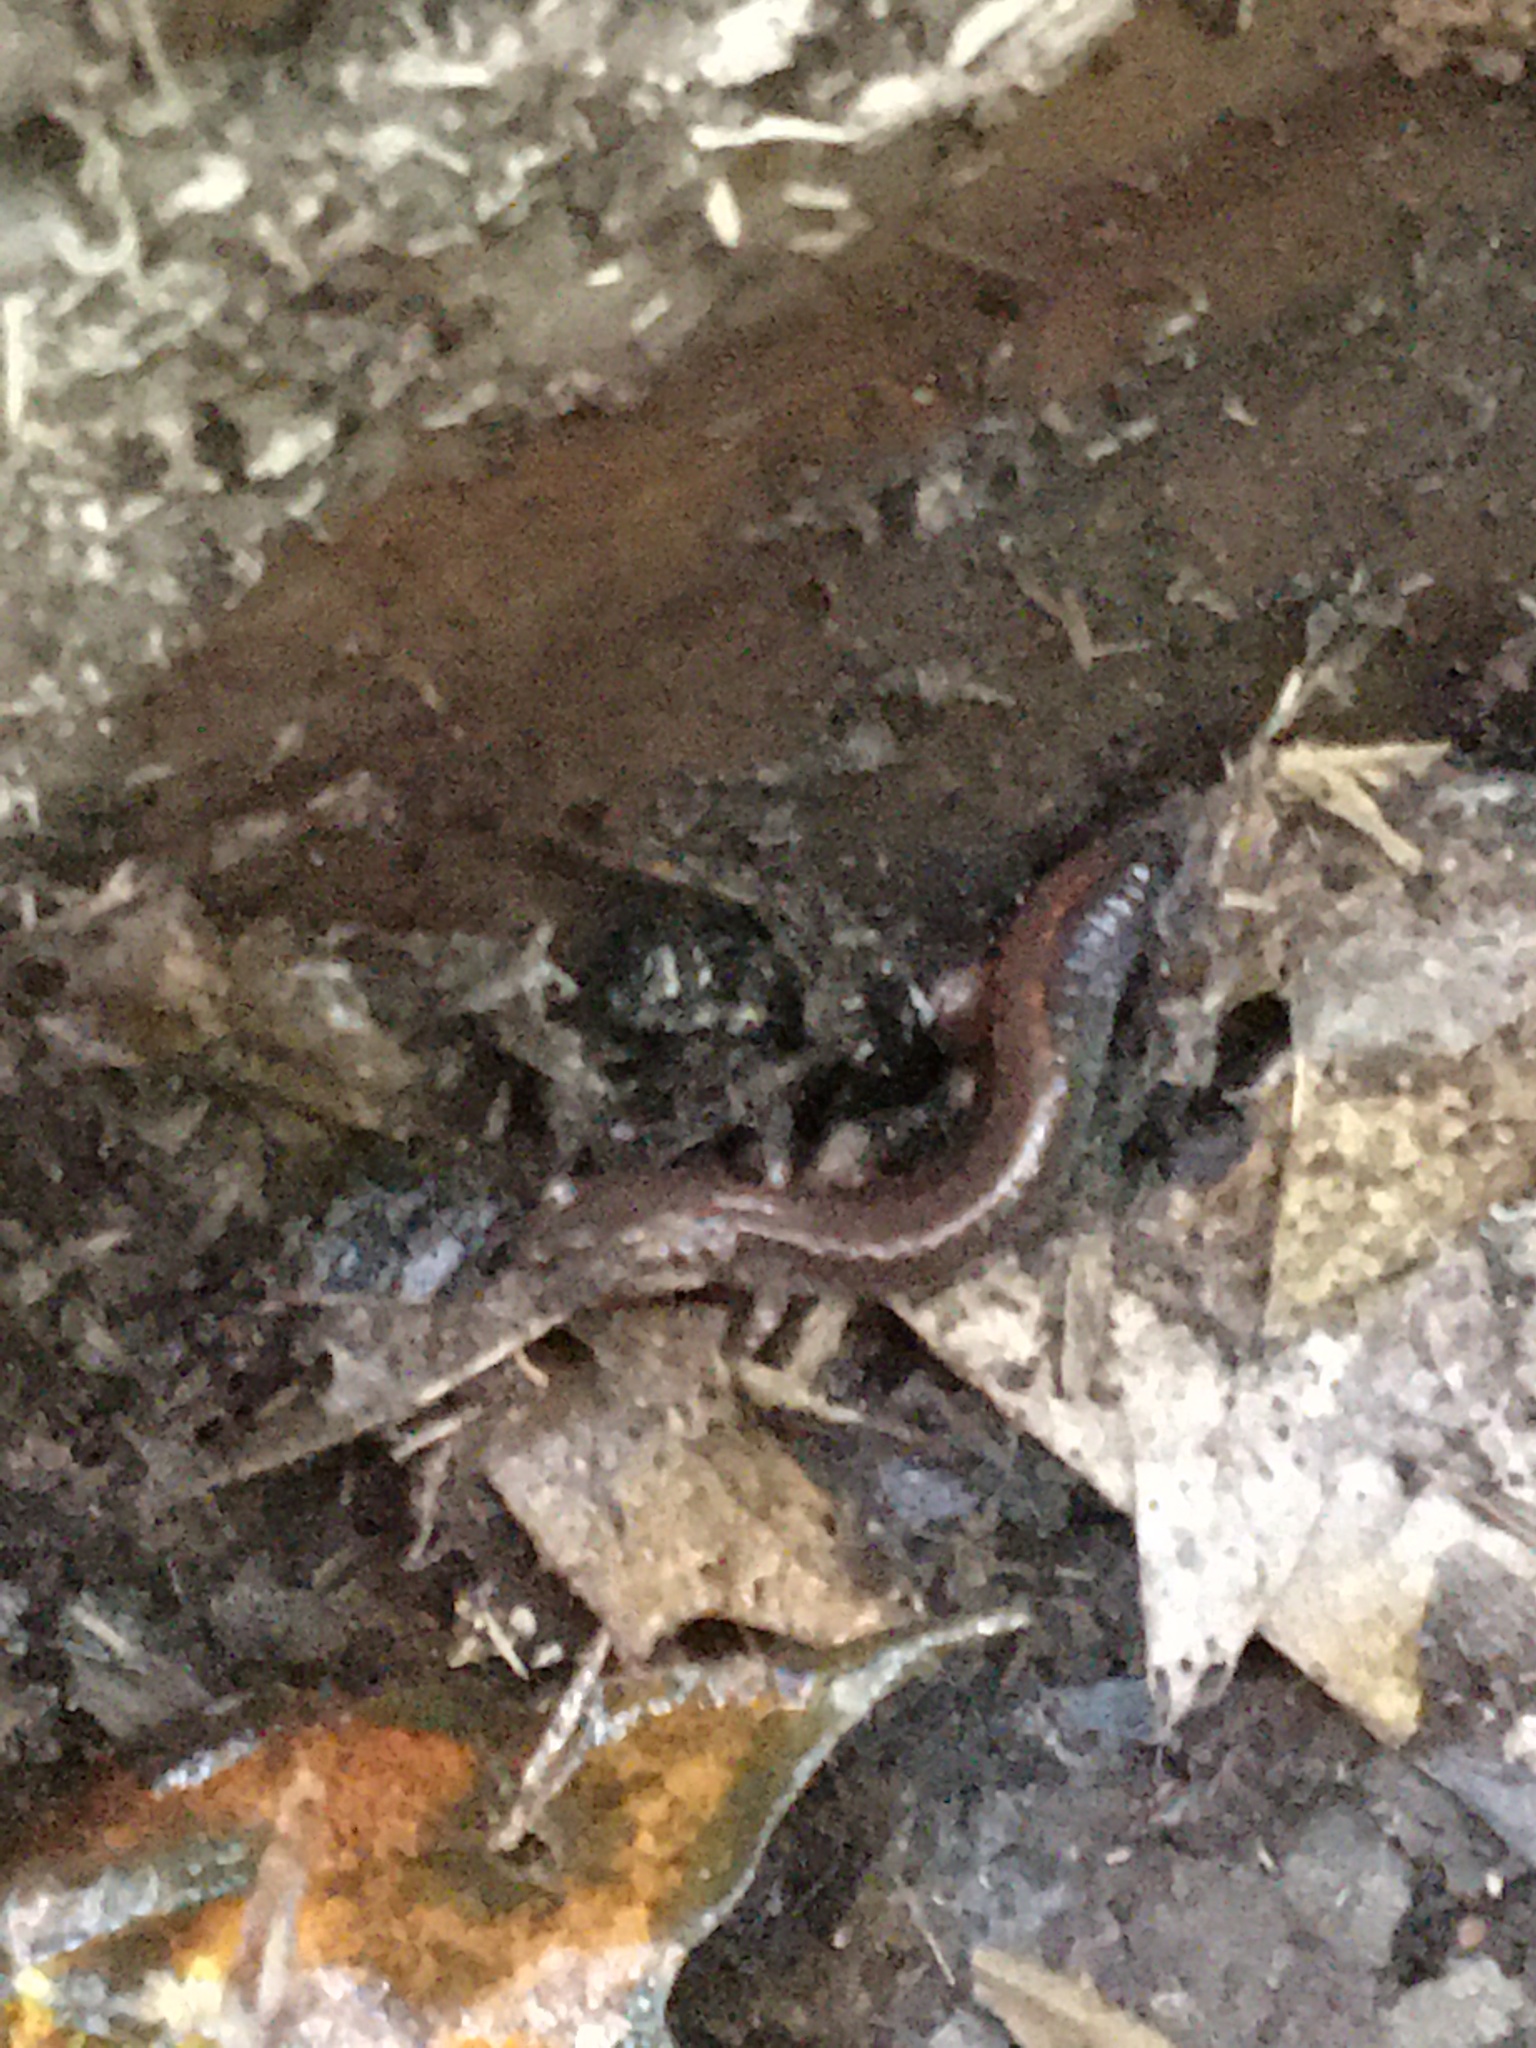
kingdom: Animalia
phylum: Chordata
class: Amphibia
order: Caudata
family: Plethodontidae
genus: Plethodon
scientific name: Plethodon cinereus
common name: Redback salamander
